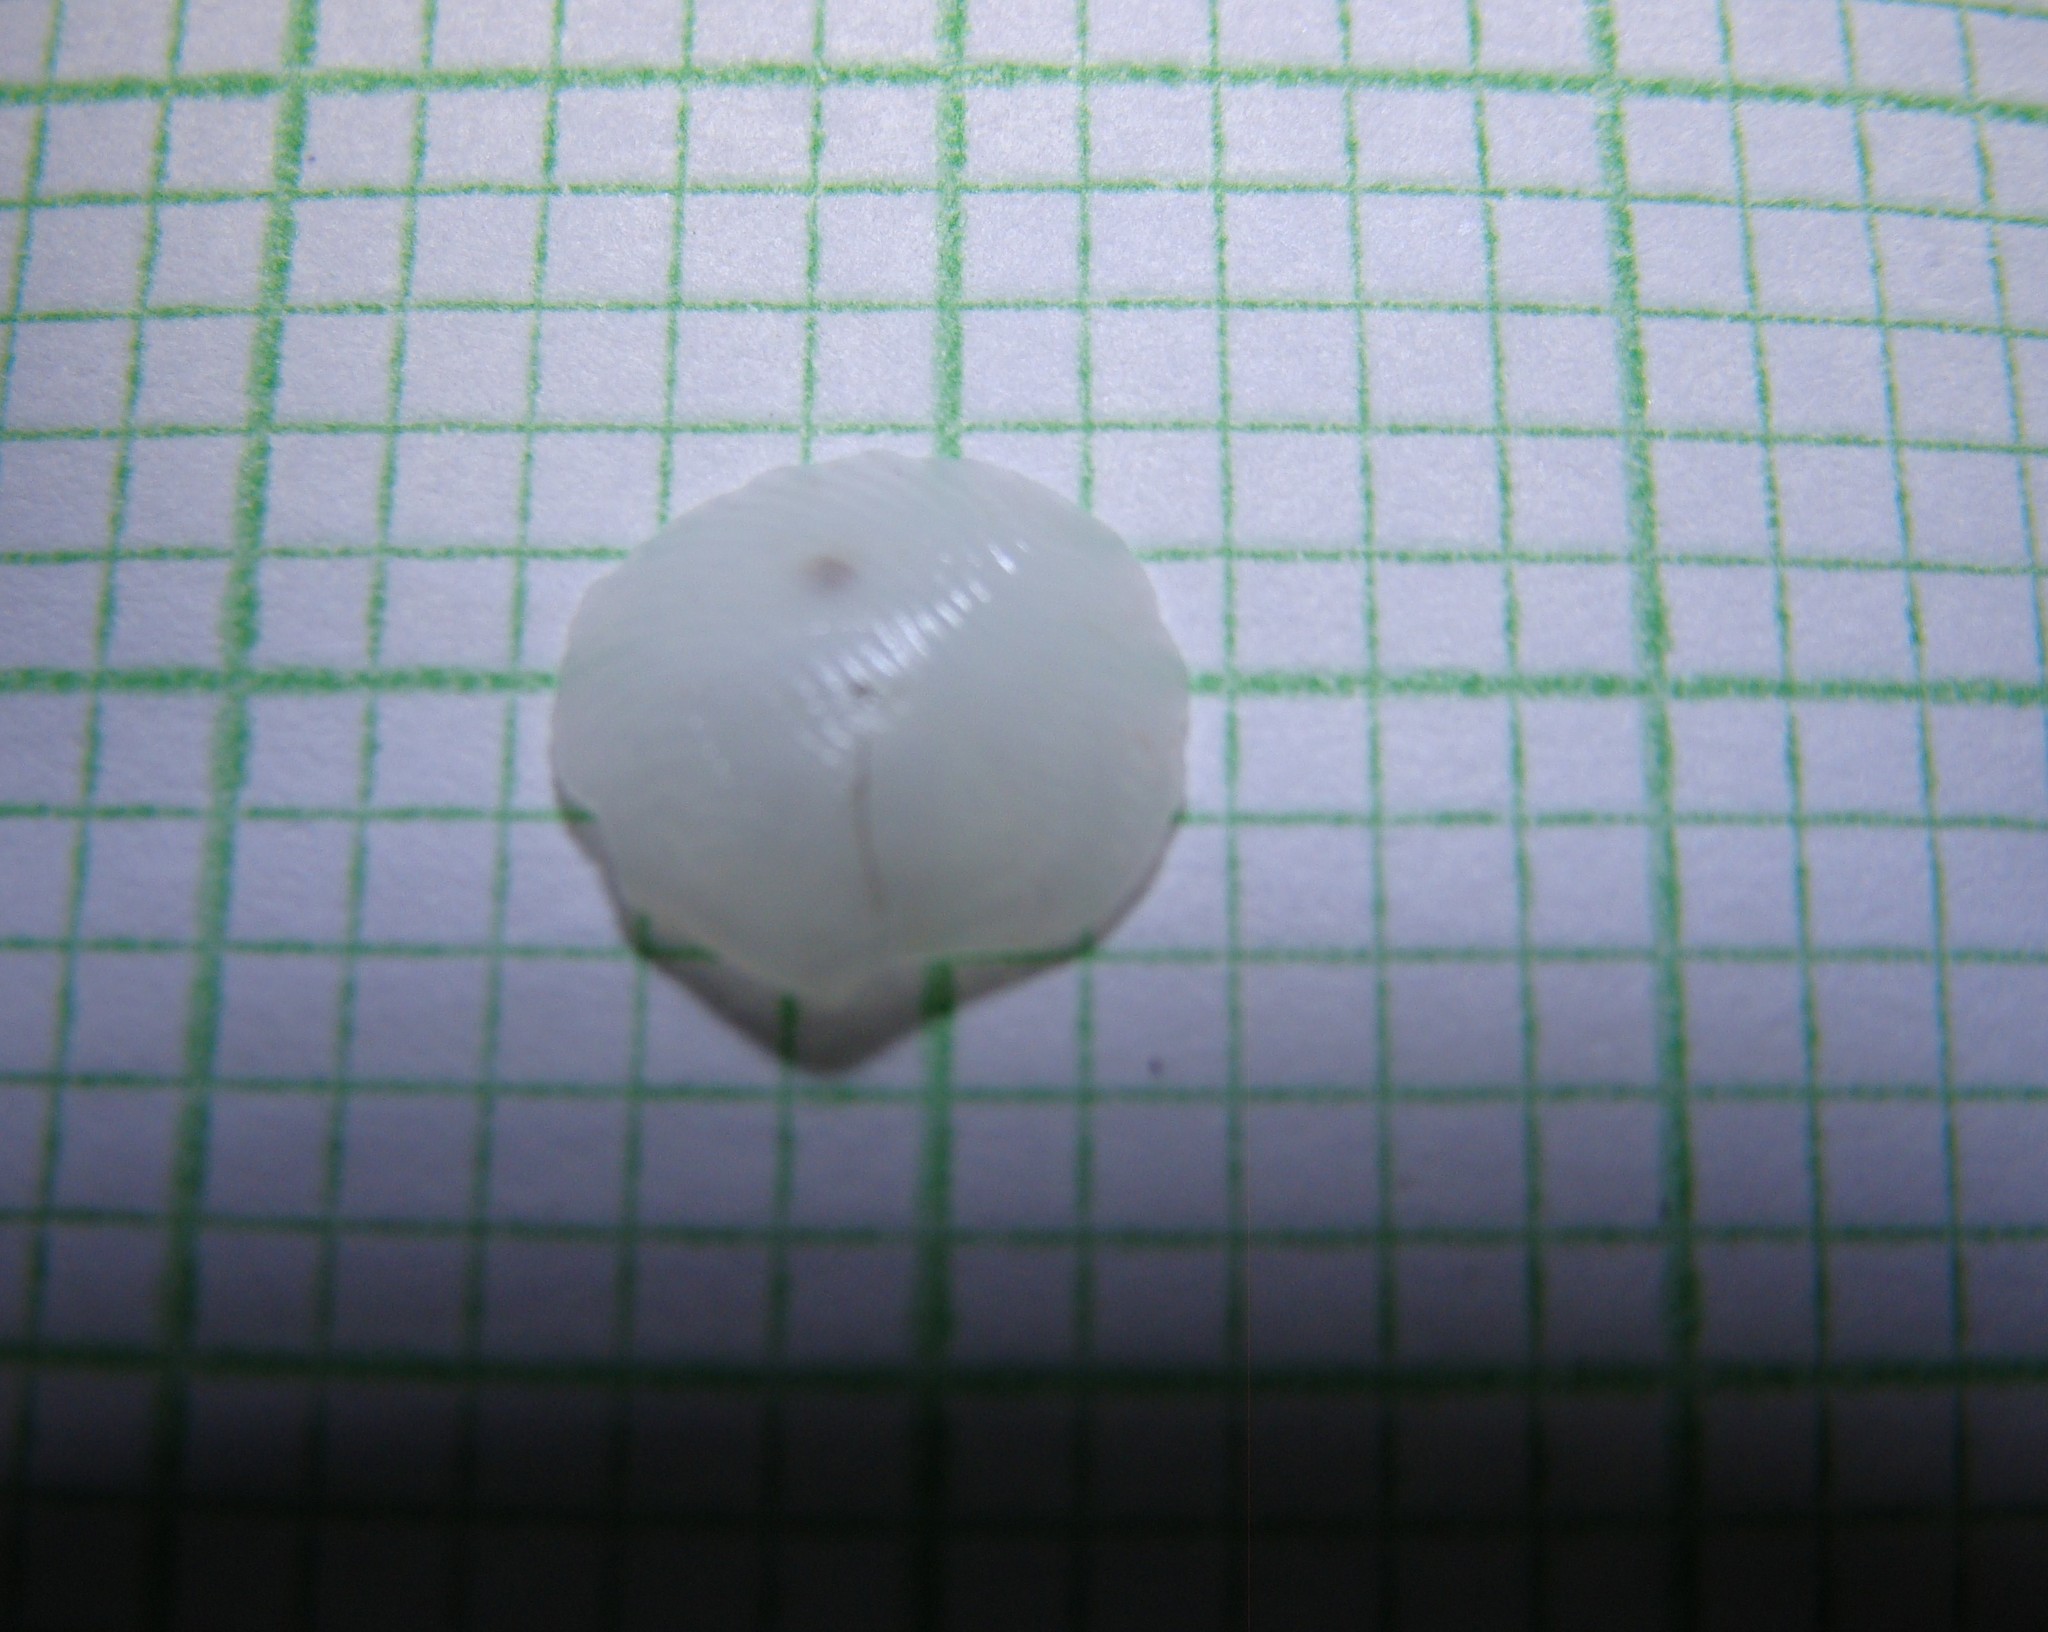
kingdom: Animalia
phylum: Mollusca
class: Bivalvia
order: Lucinida
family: Lucinidae
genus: Divalucina
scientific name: Divalucina cumingi
